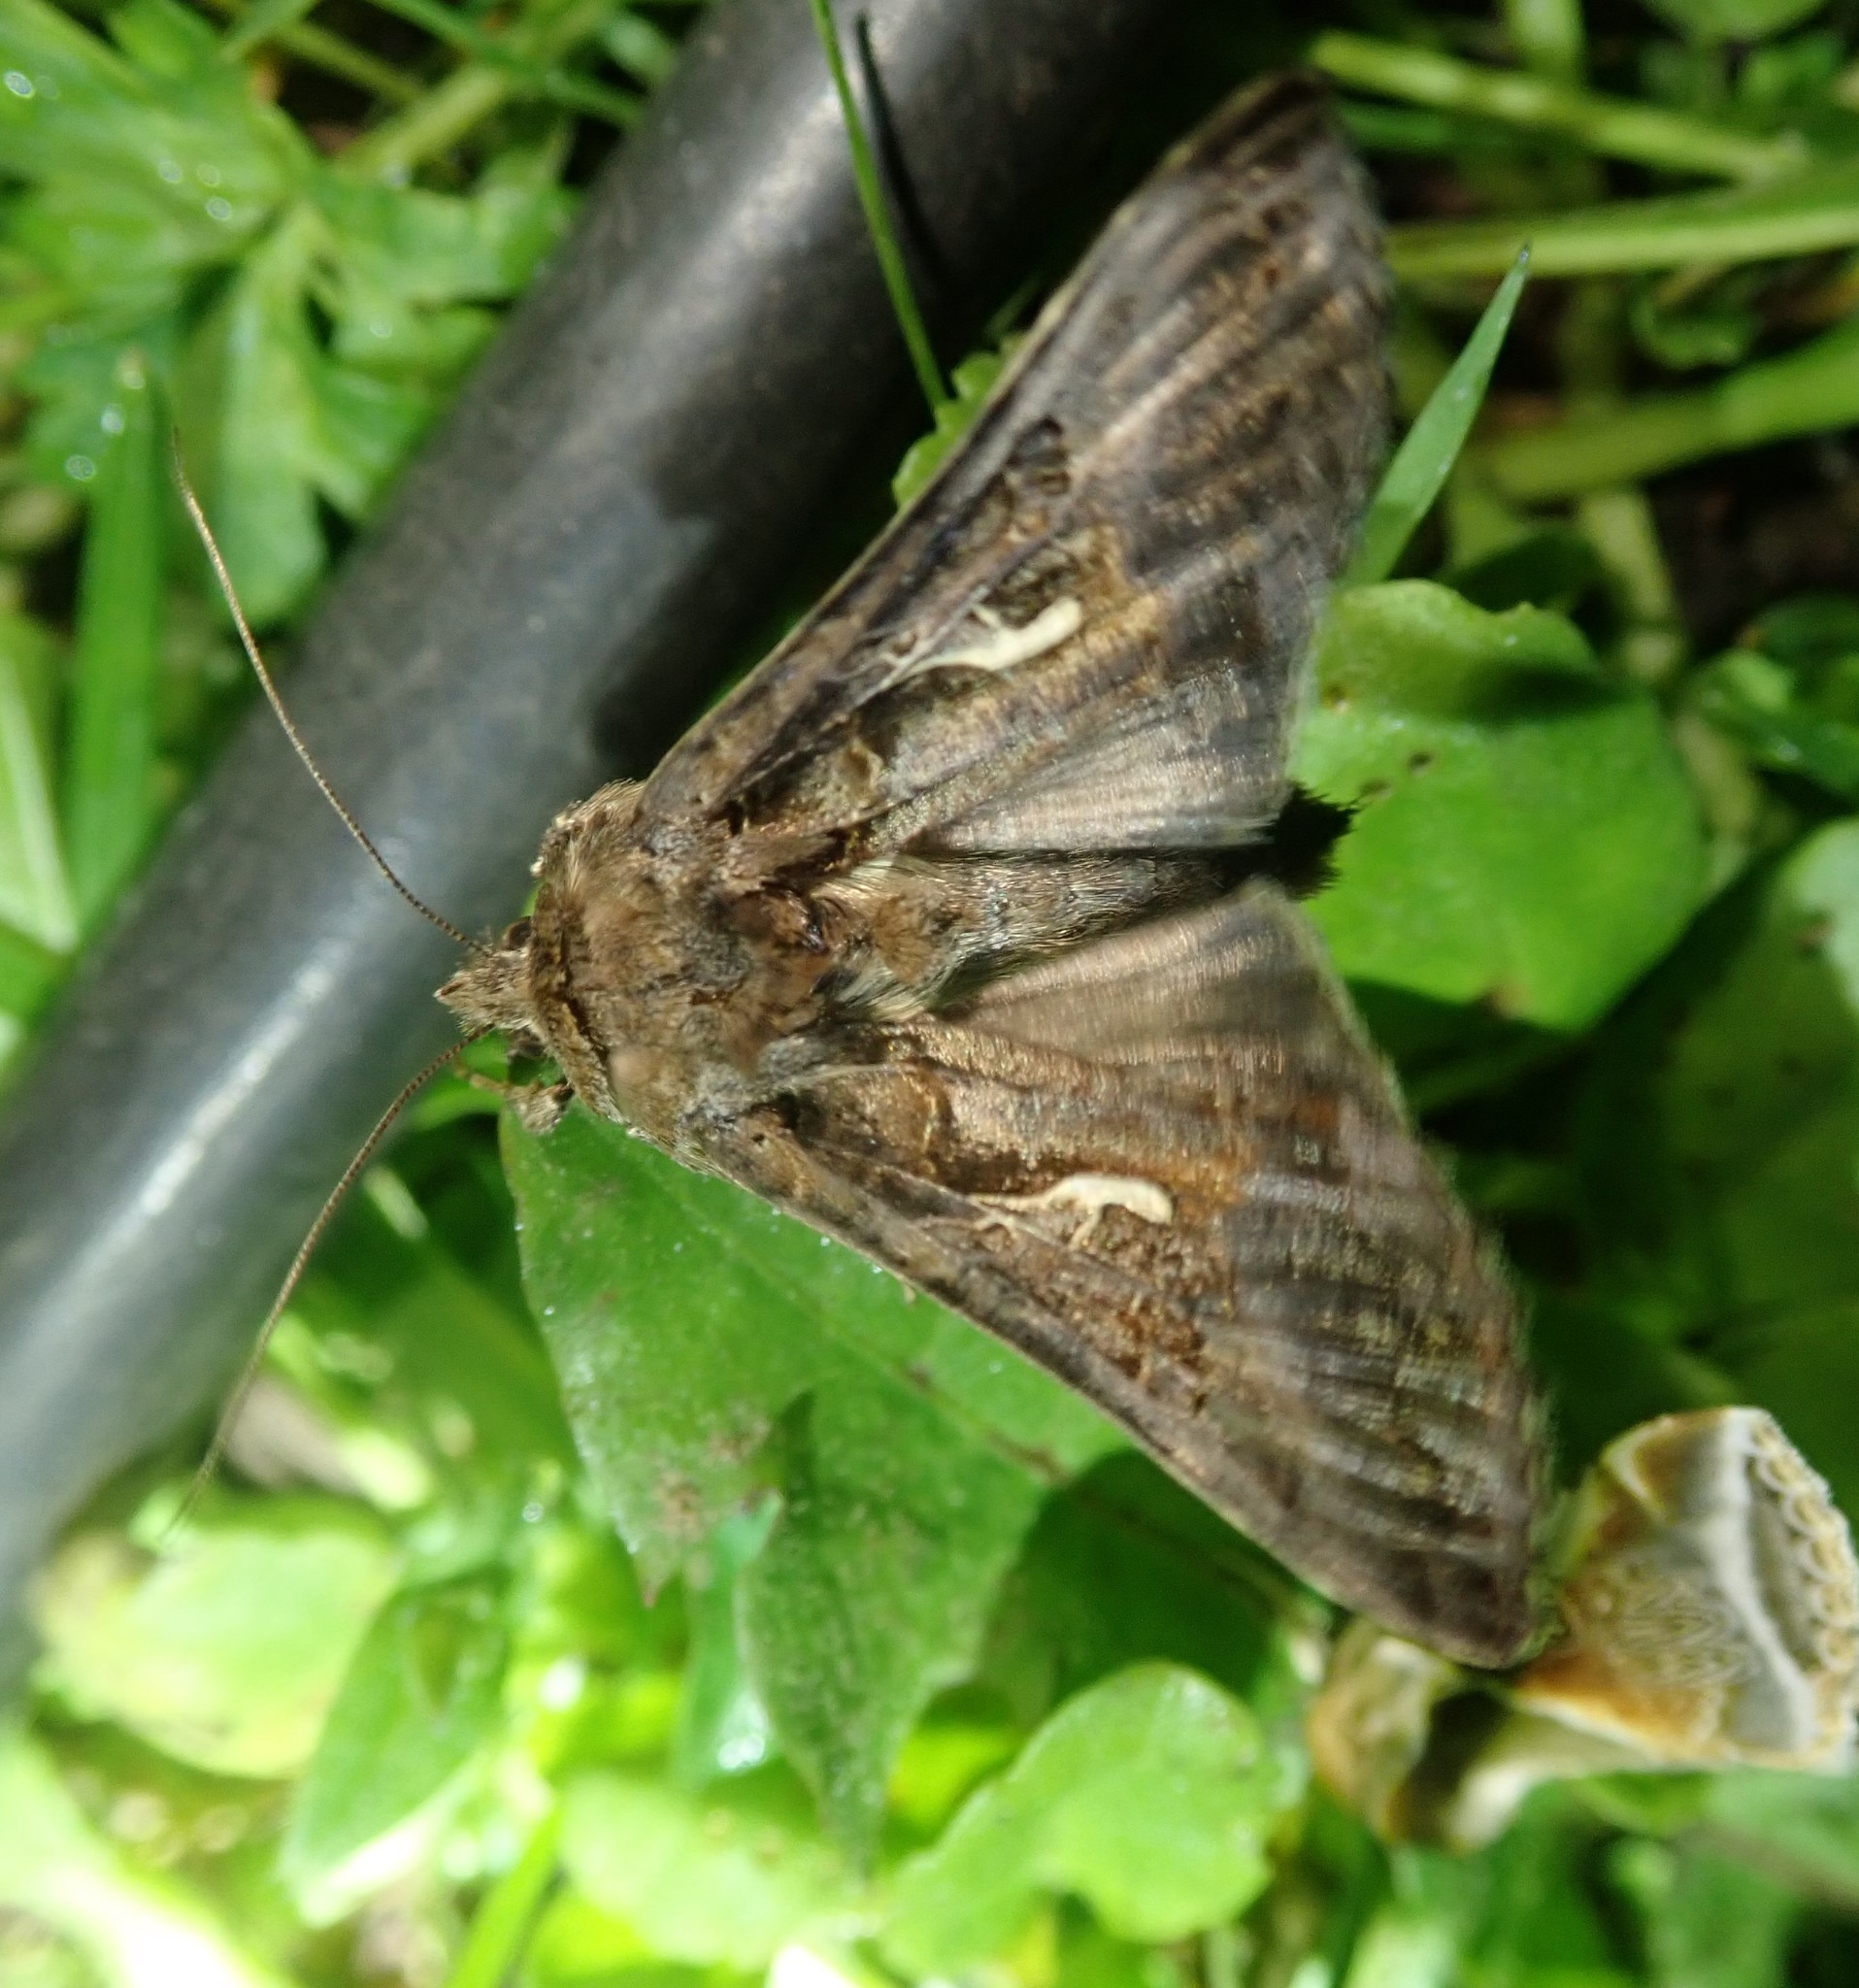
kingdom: Animalia
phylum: Arthropoda
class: Insecta
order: Lepidoptera
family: Noctuidae
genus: Autographa
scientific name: Autographa gamma
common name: Silver y
